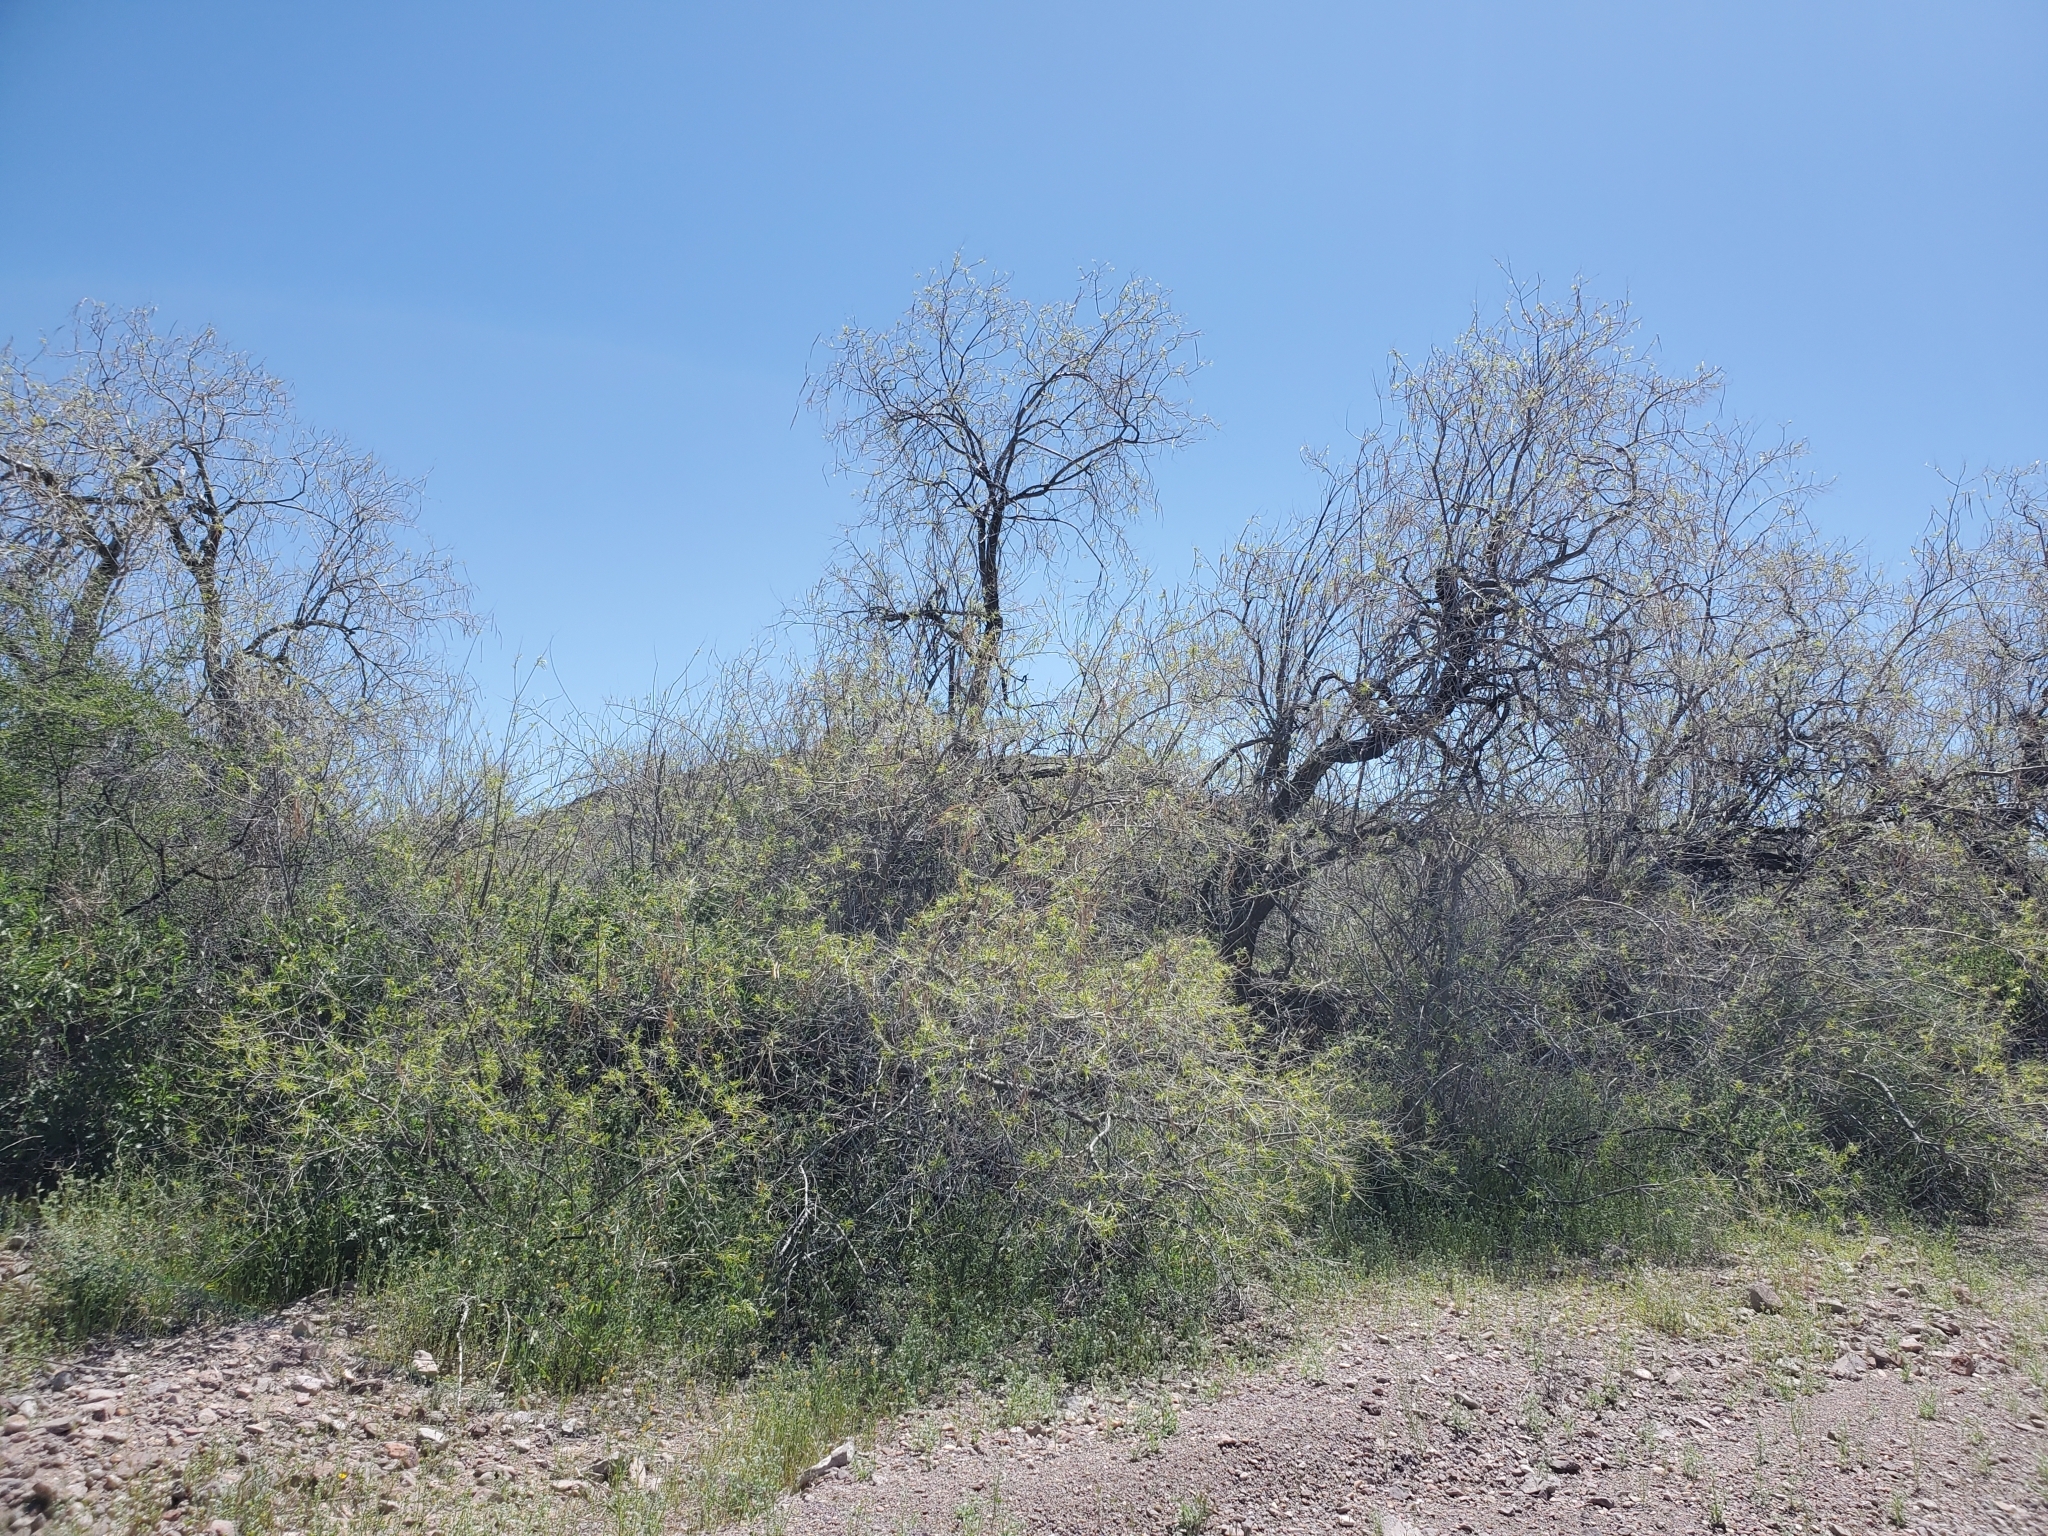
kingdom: Plantae
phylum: Tracheophyta
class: Magnoliopsida
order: Lamiales
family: Bignoniaceae
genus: Chilopsis
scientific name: Chilopsis linearis
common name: Desert-willow
